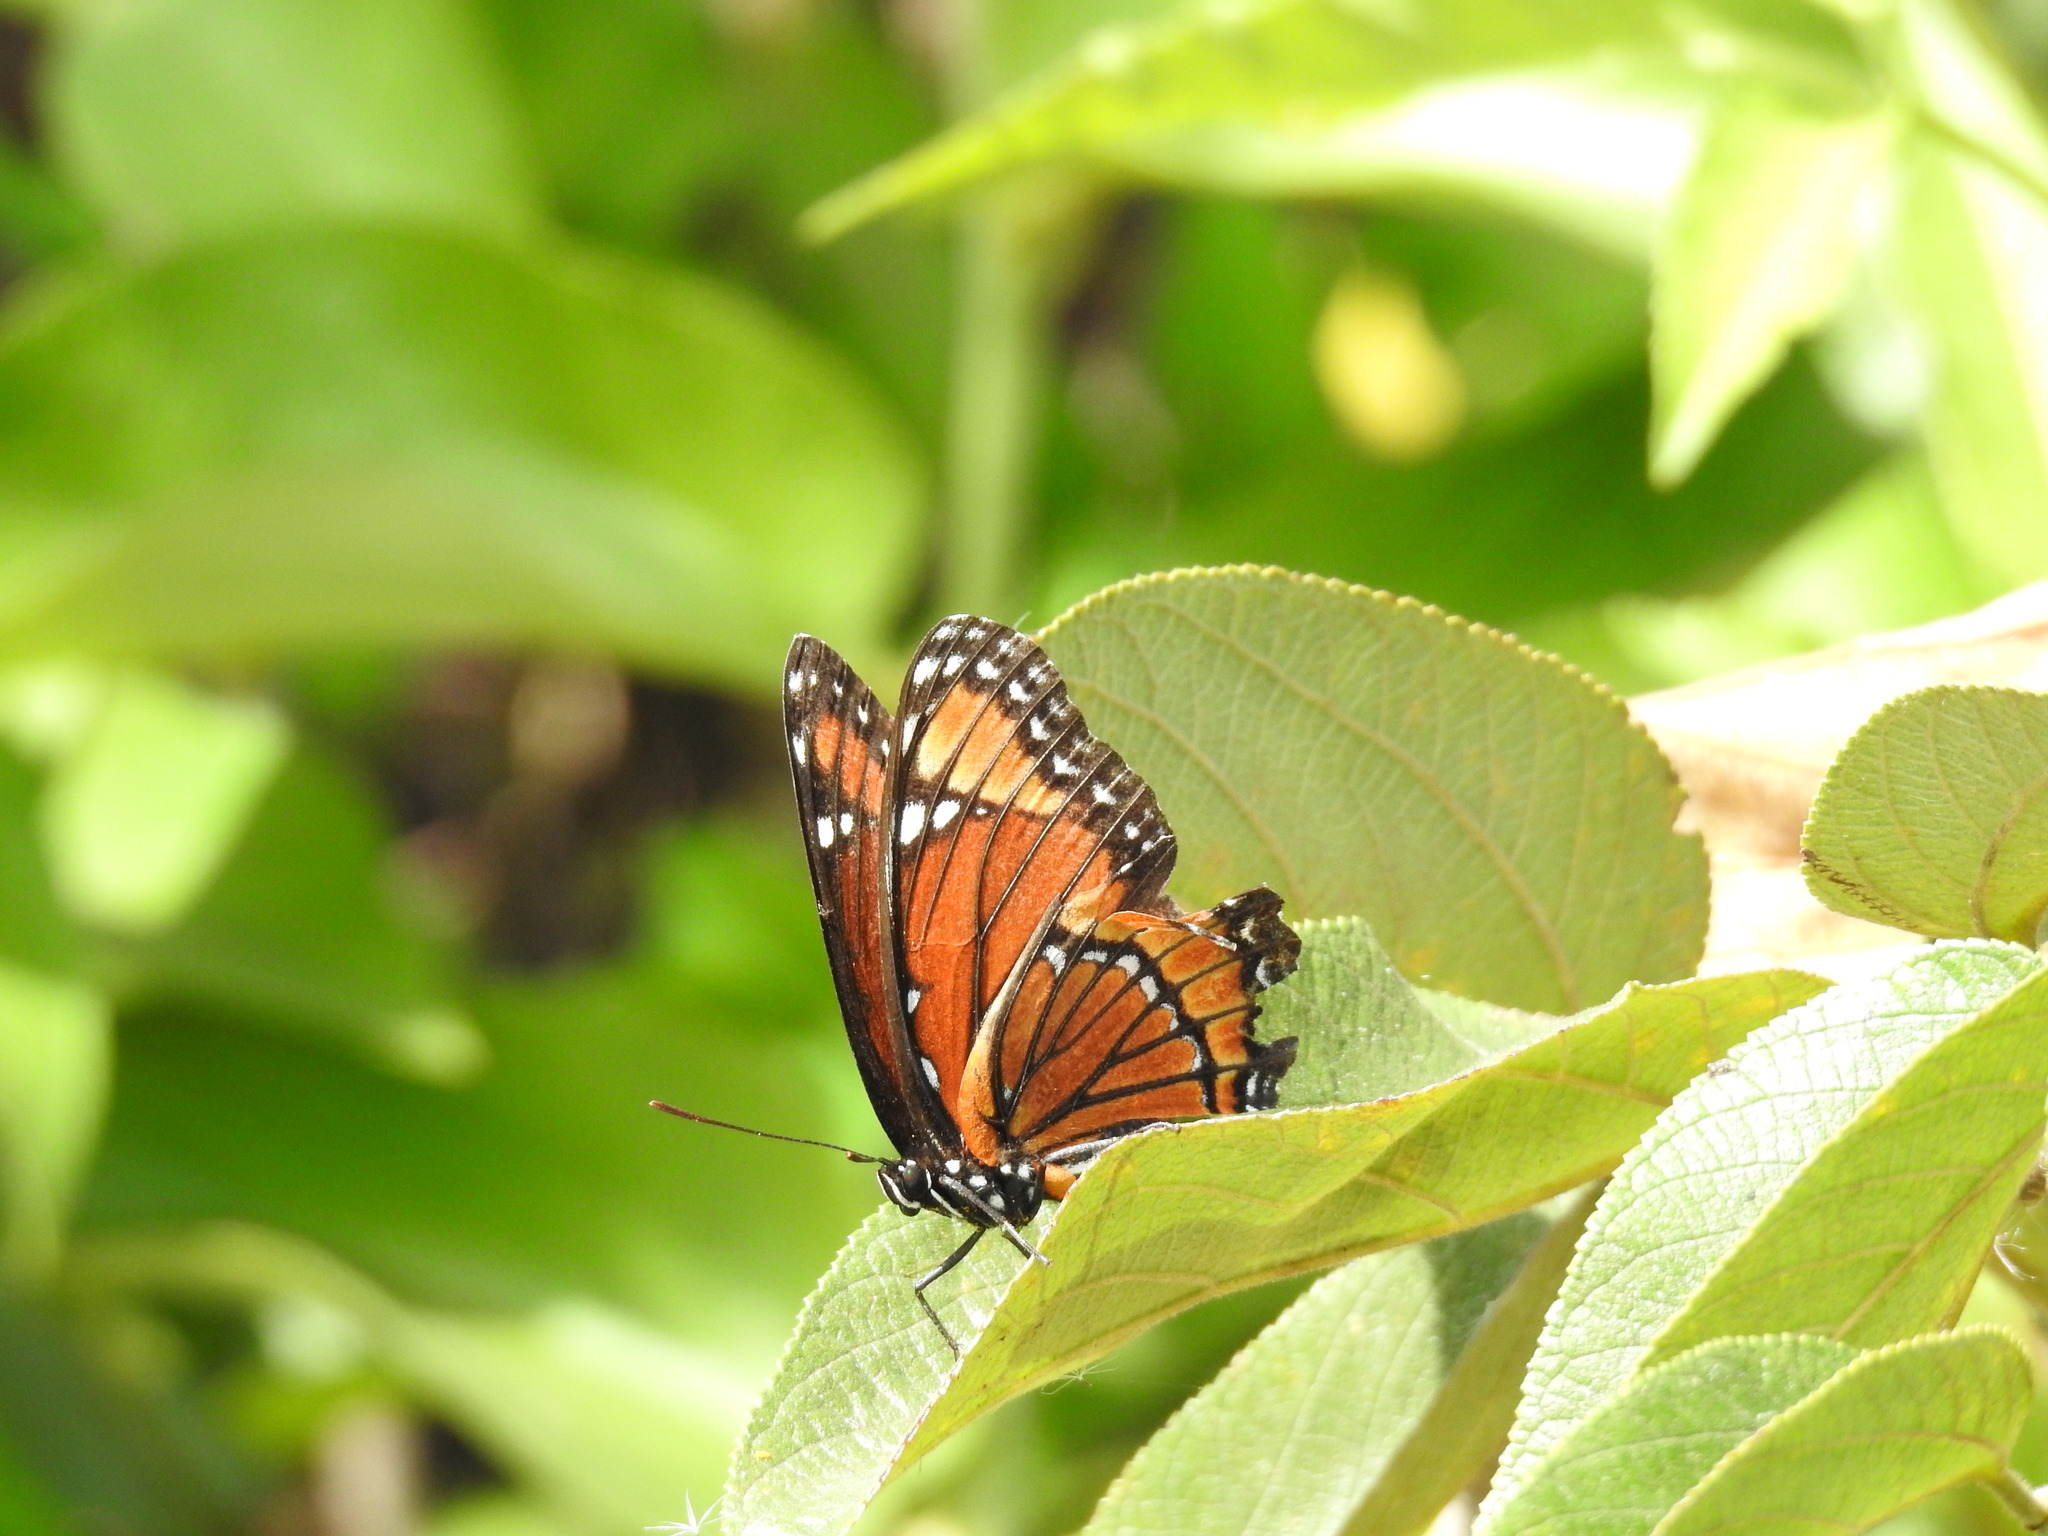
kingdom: Animalia
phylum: Arthropoda
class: Insecta
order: Lepidoptera
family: Nymphalidae
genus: Limenitis
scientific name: Limenitis archippus
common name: Viceroy
